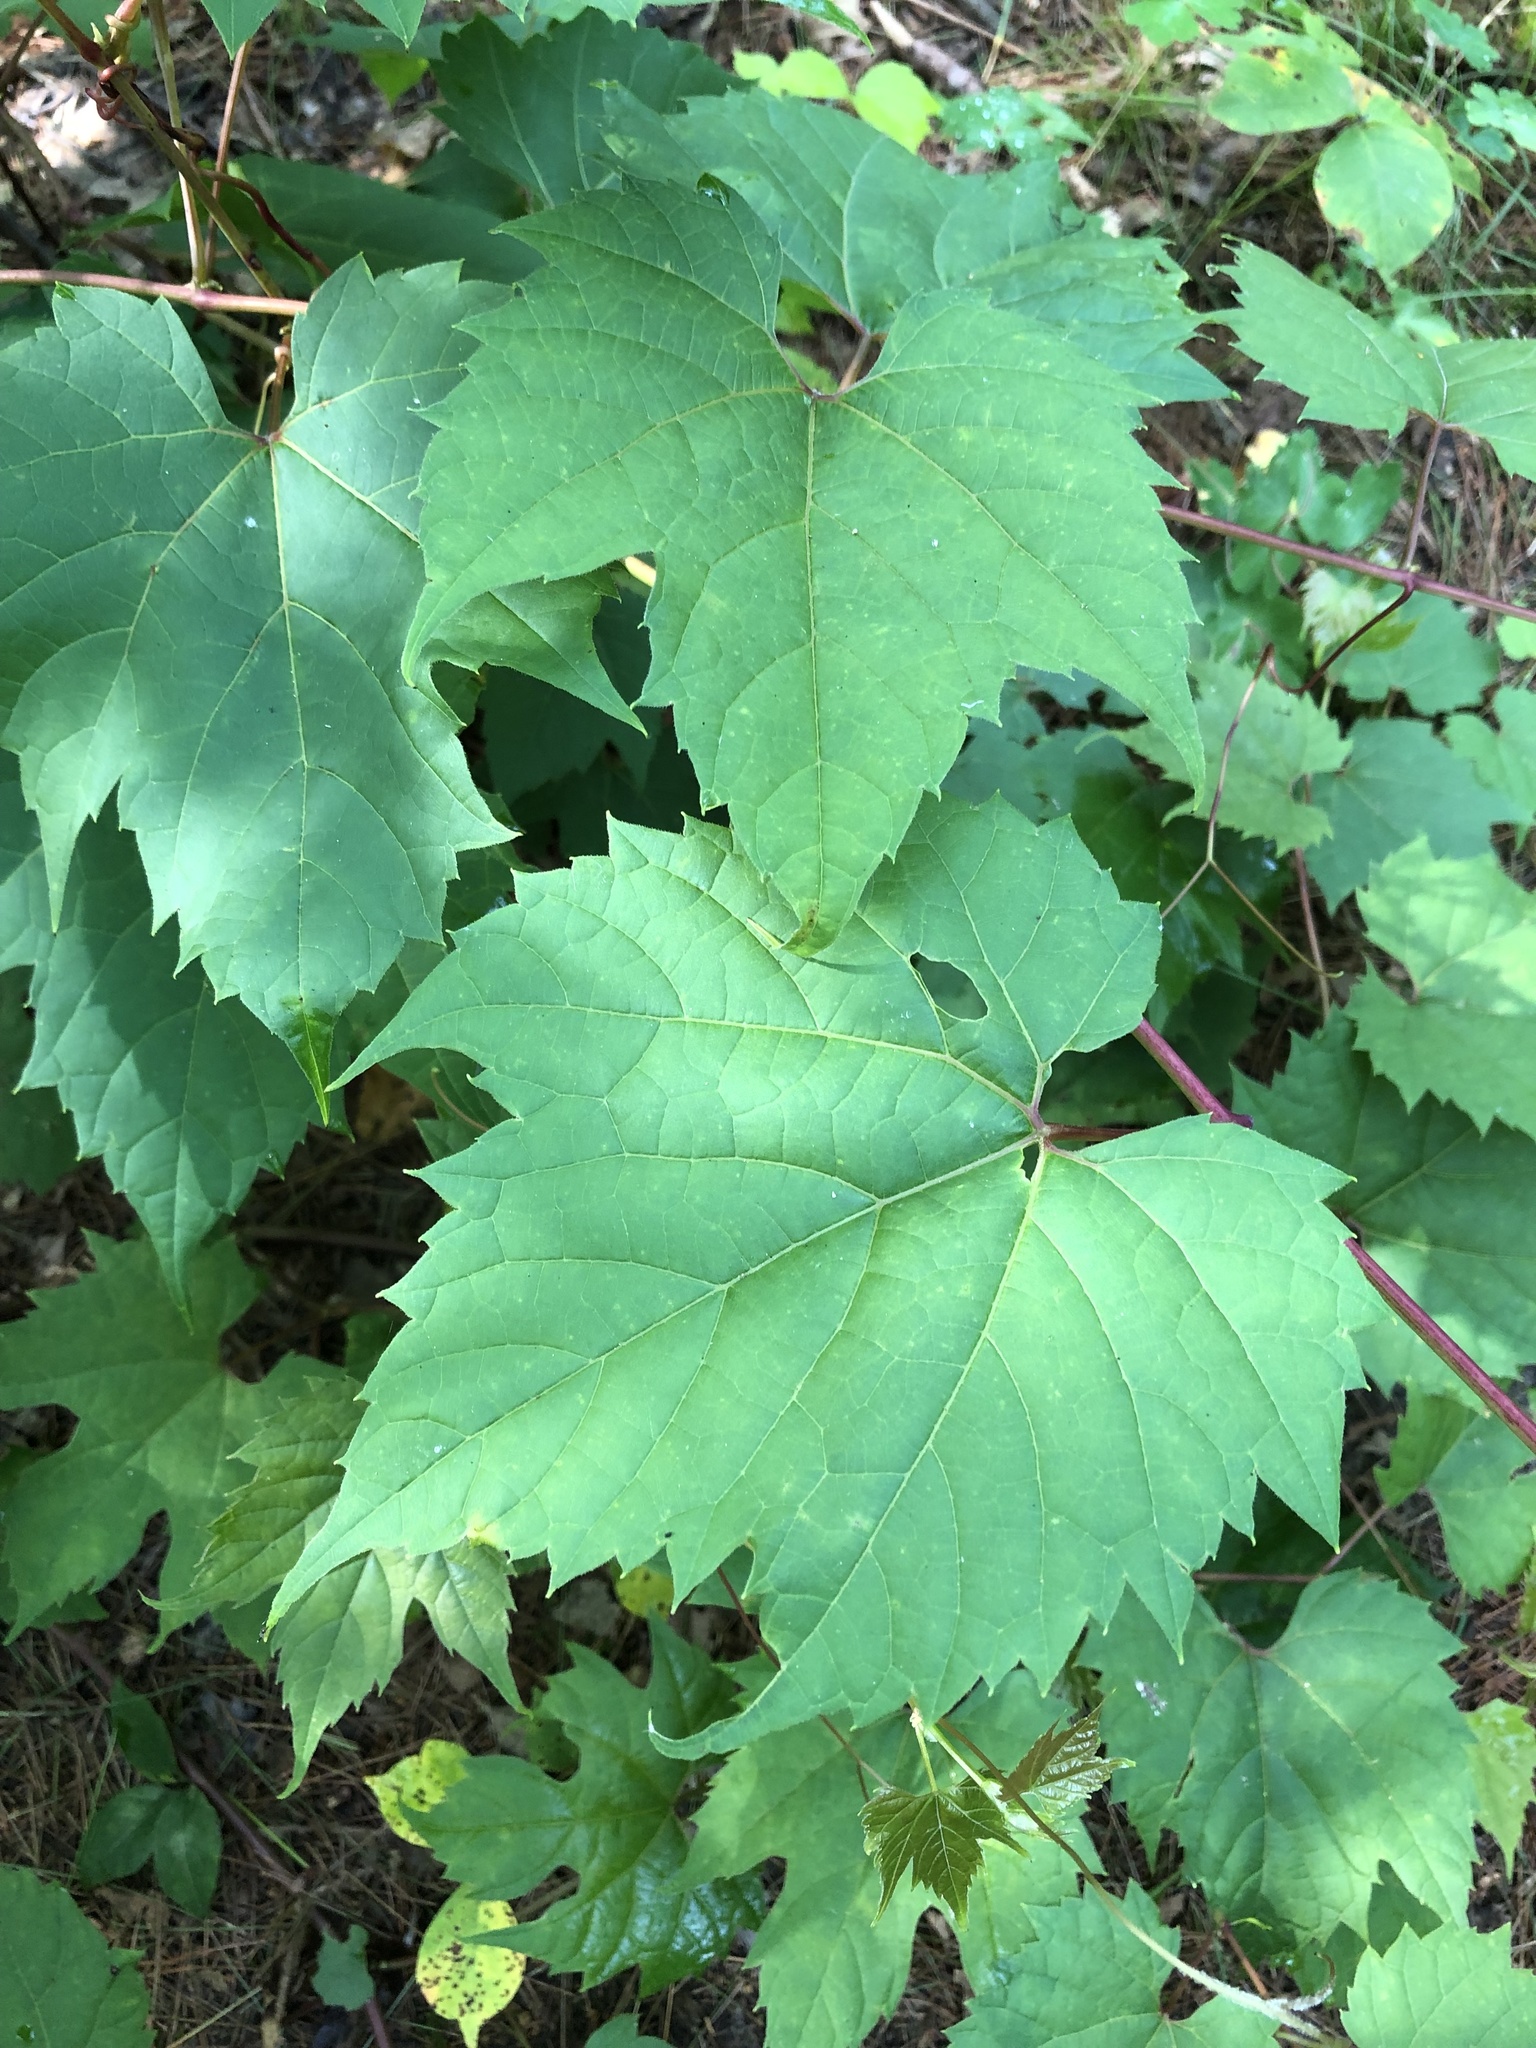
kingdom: Plantae
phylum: Tracheophyta
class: Magnoliopsida
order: Vitales
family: Vitaceae
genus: Vitis
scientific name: Vitis riparia
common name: Frost grape
